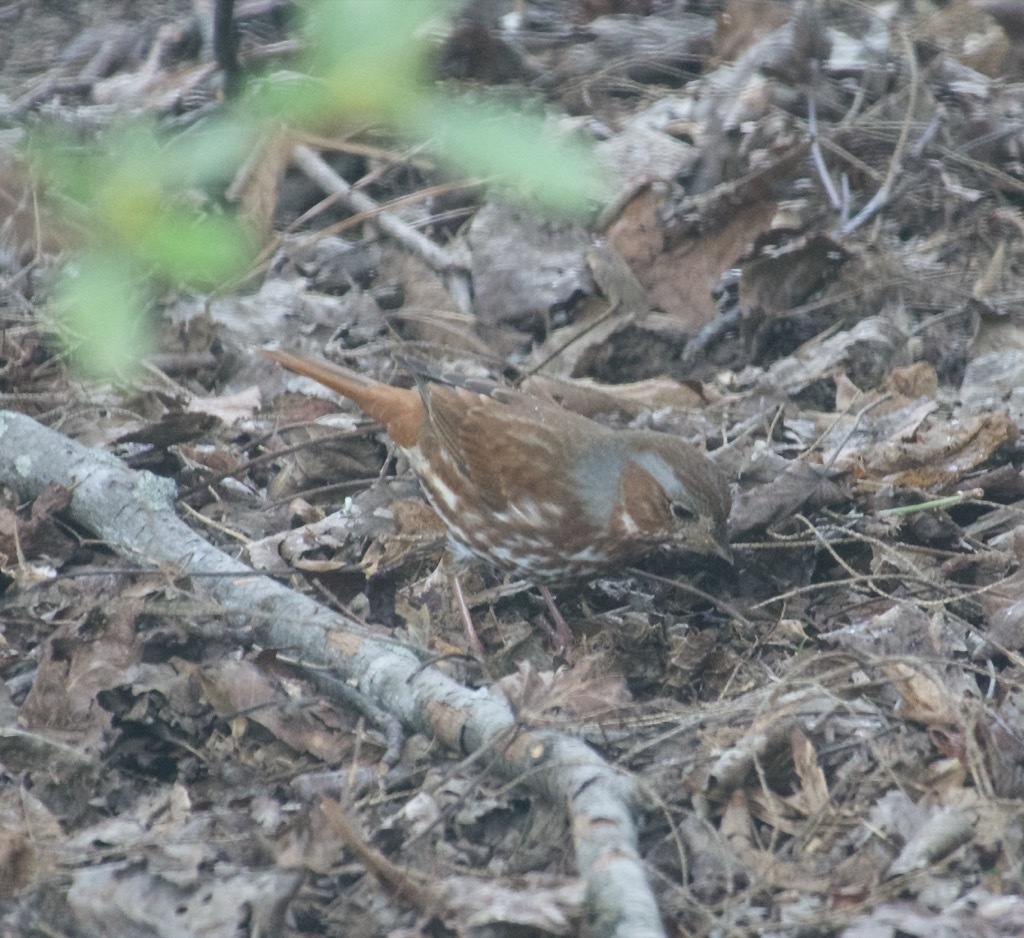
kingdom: Animalia
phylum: Chordata
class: Aves
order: Passeriformes
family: Passerellidae
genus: Passerella
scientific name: Passerella iliaca
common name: Fox sparrow
